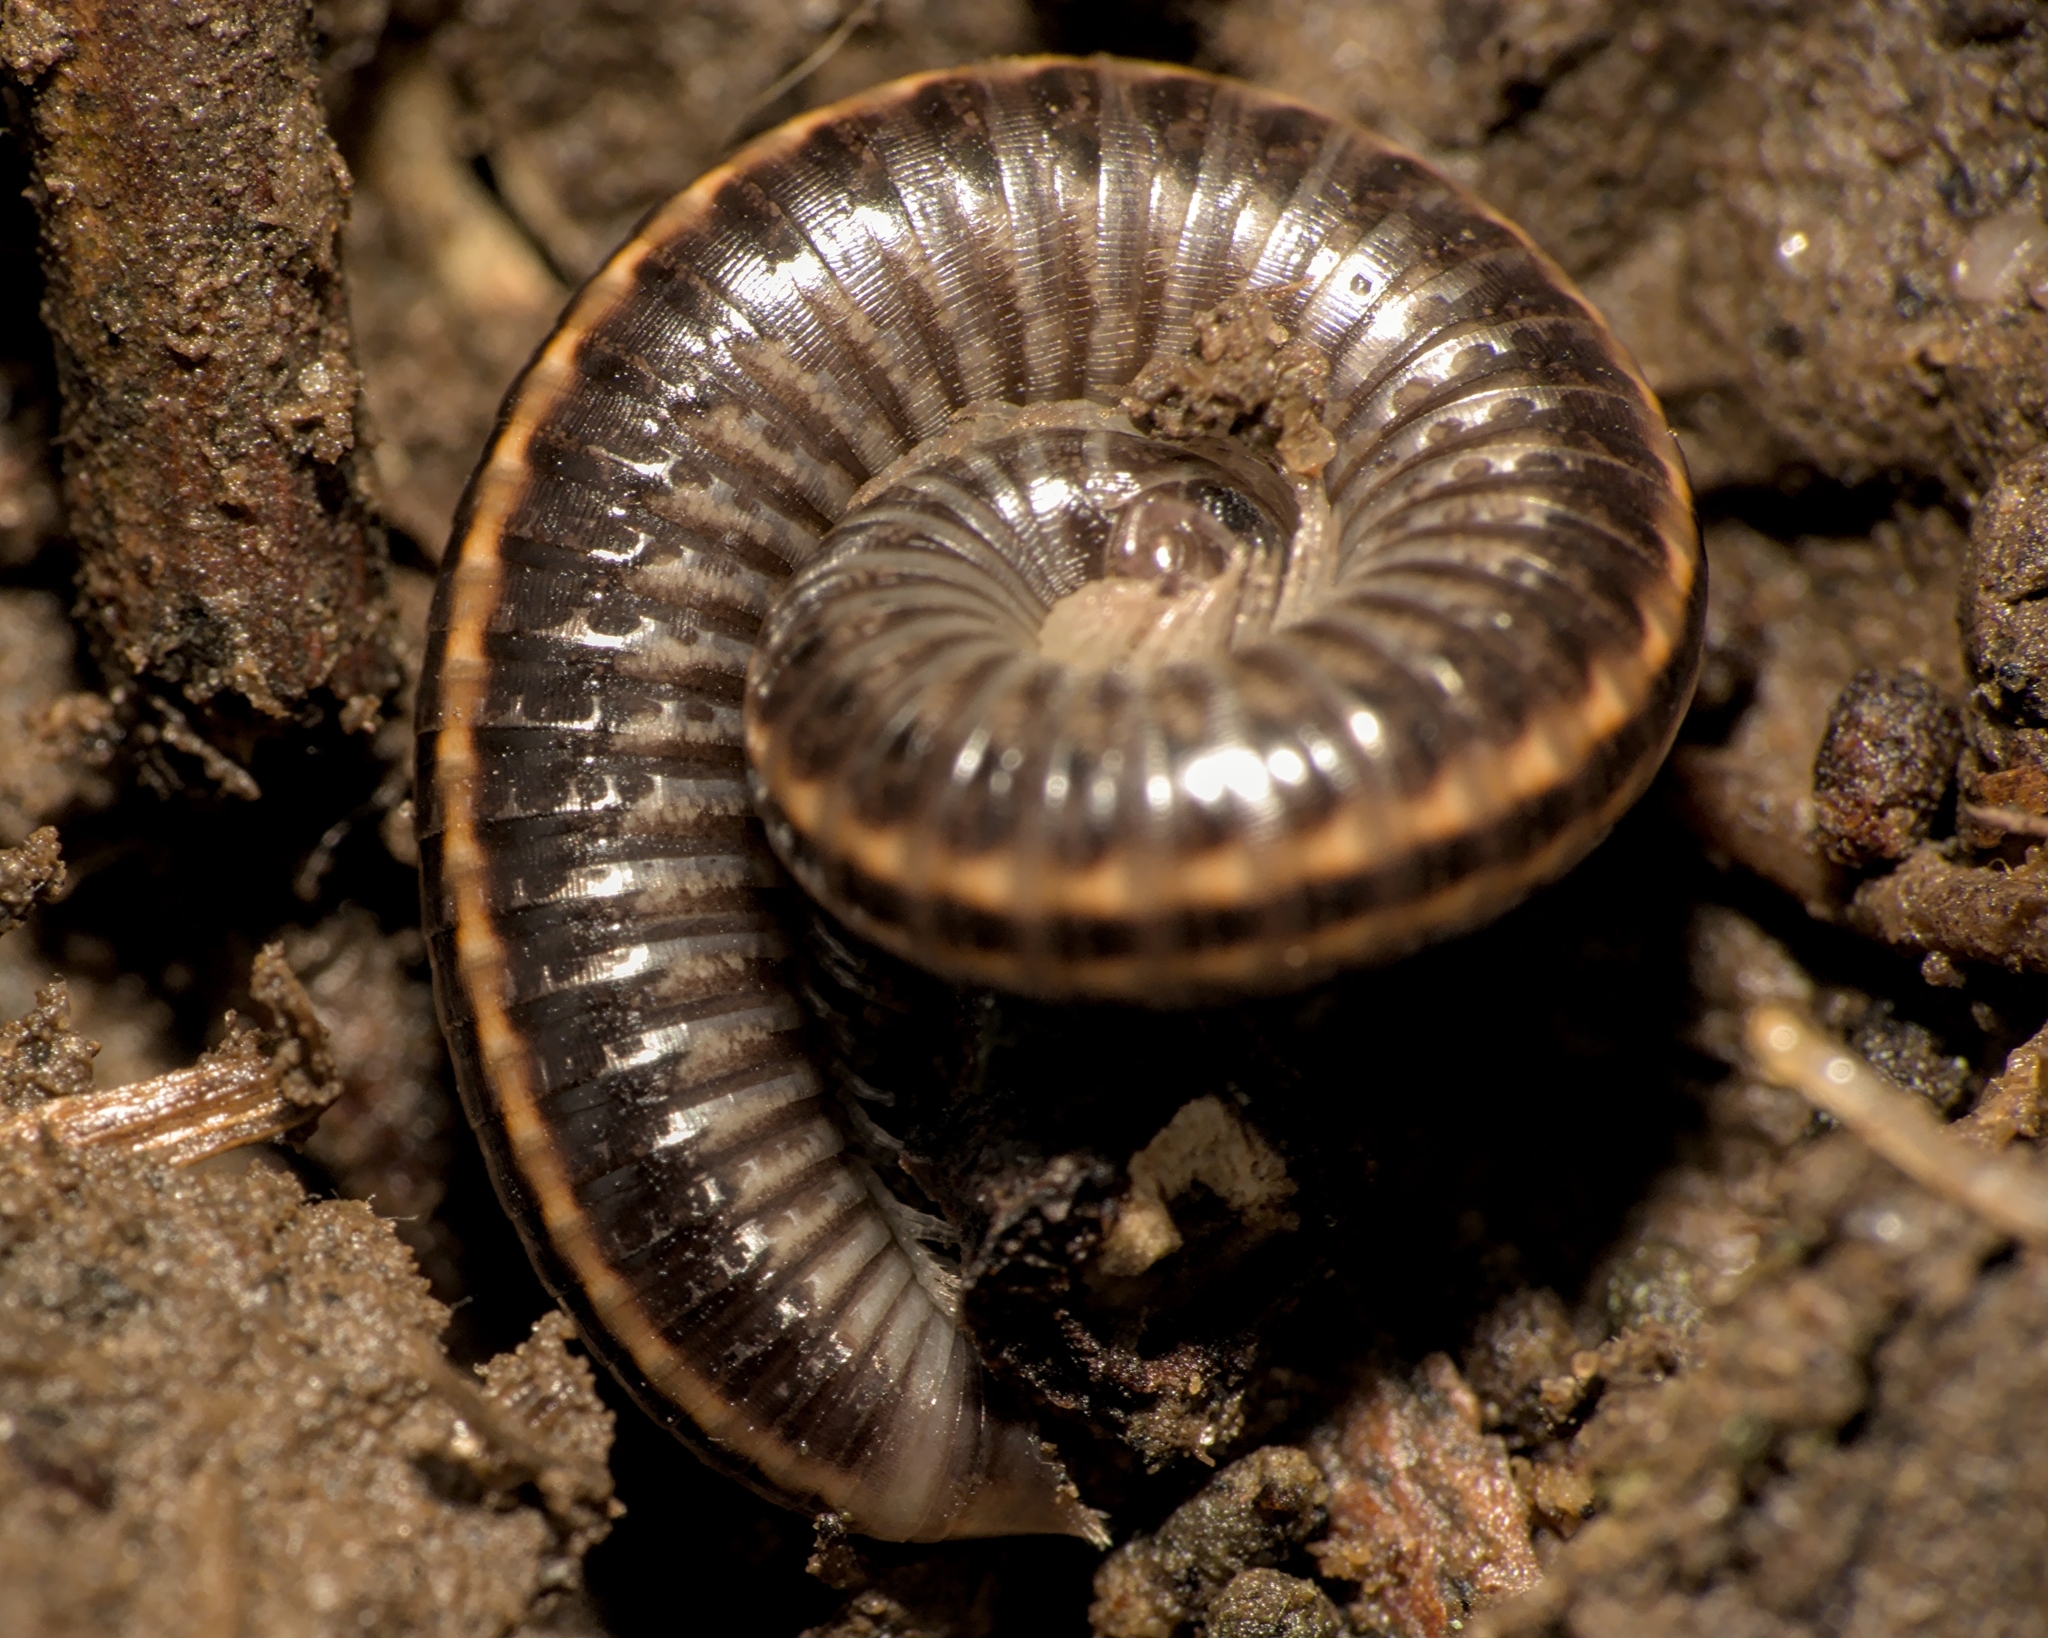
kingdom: Animalia
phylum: Arthropoda
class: Diplopoda
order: Julida
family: Julidae
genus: Ommatoiulus
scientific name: Ommatoiulus sabulosus
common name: Striped millipede
